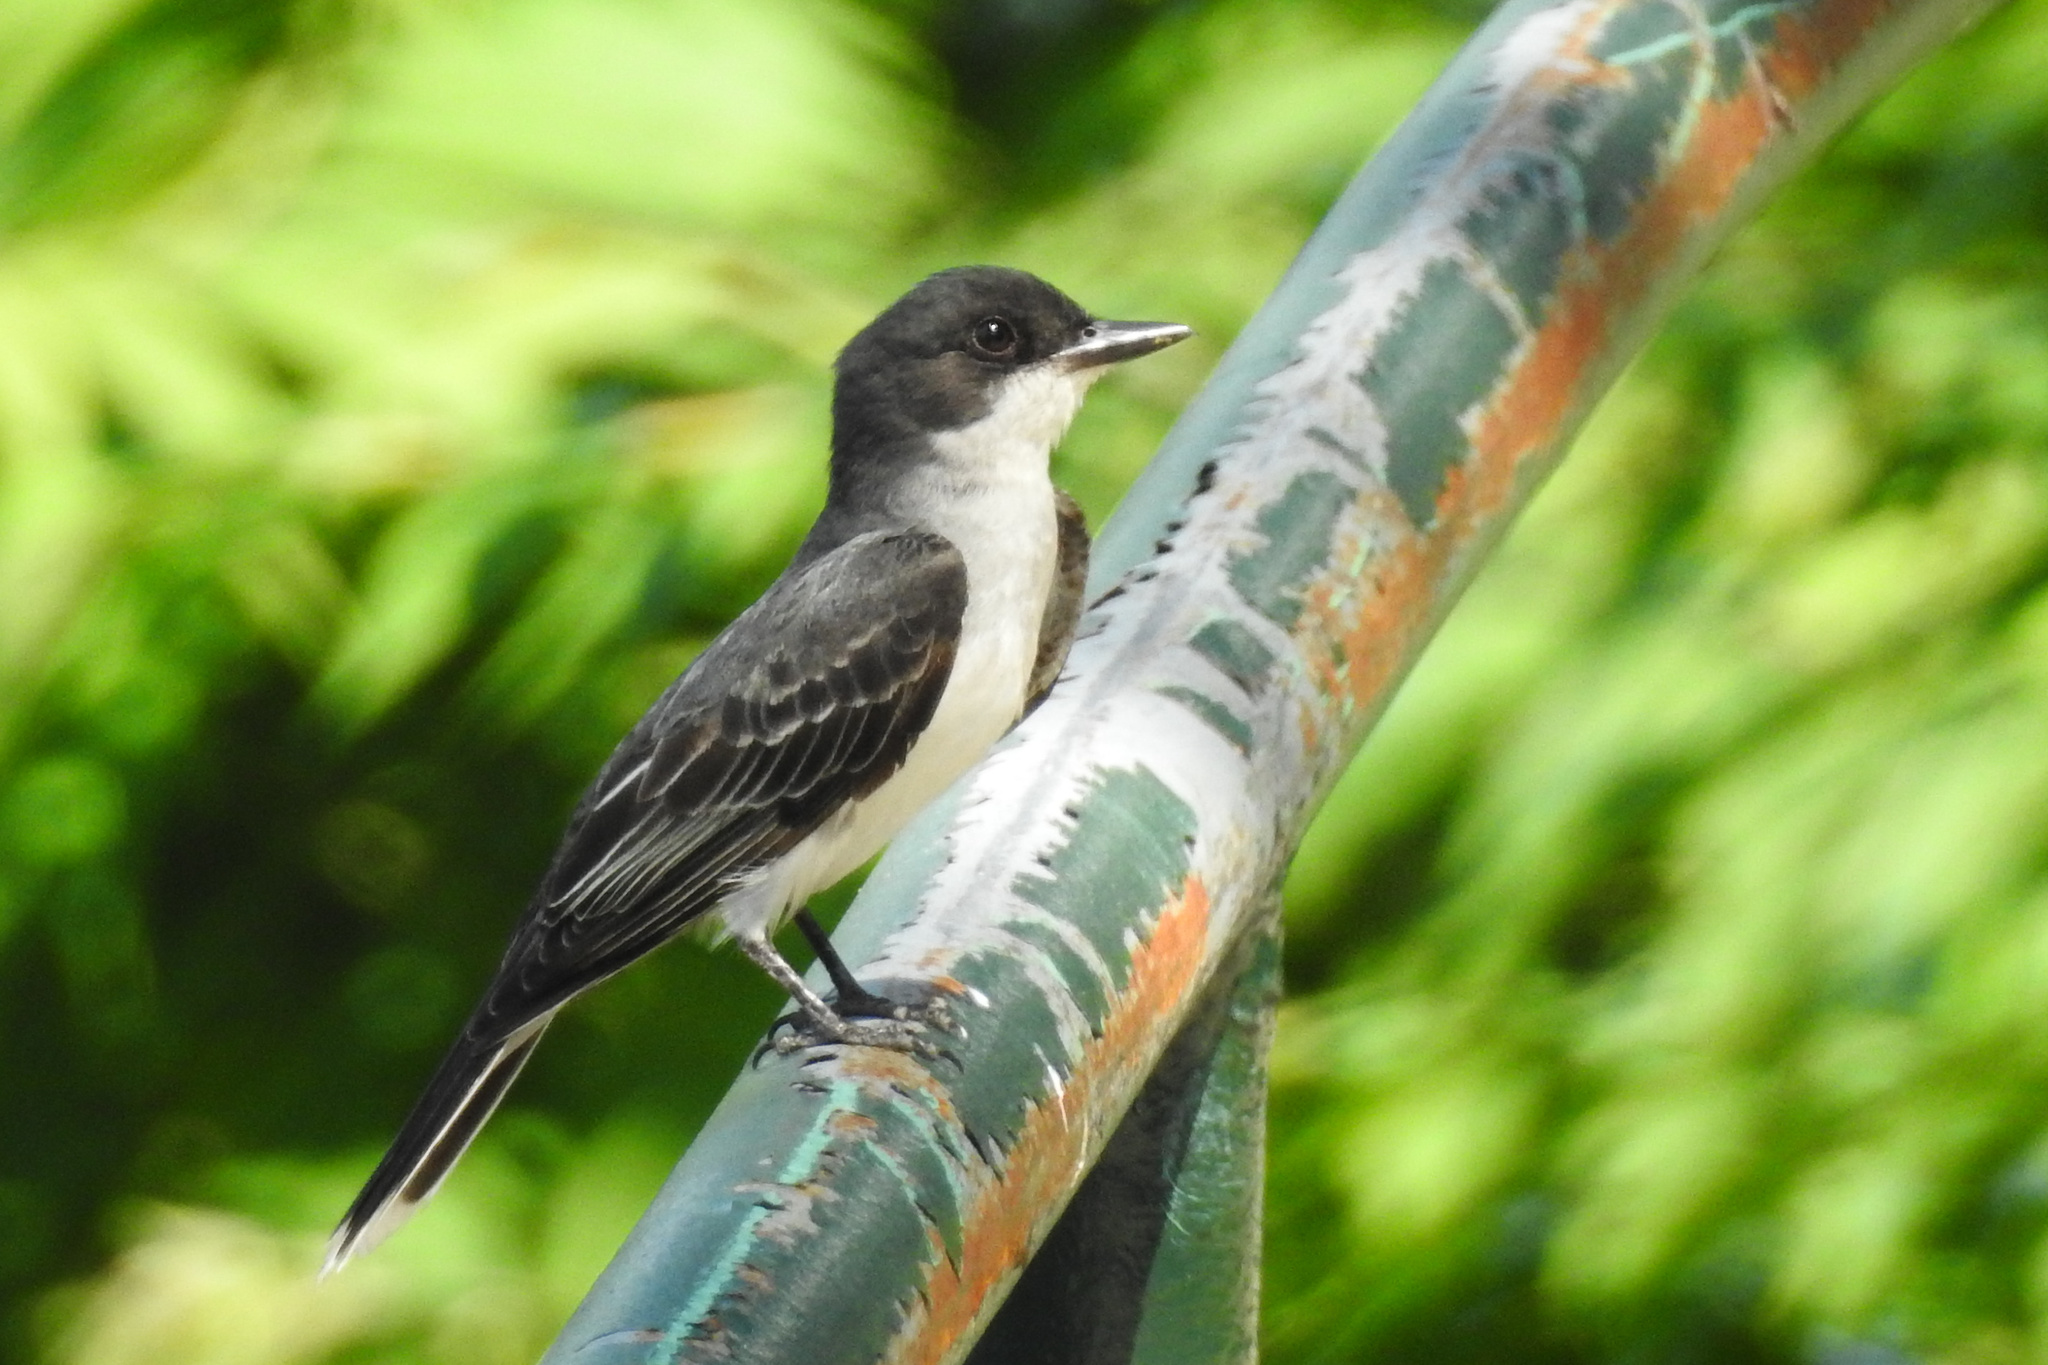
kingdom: Animalia
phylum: Chordata
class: Aves
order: Passeriformes
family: Tyrannidae
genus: Tyrannus
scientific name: Tyrannus tyrannus
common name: Eastern kingbird
